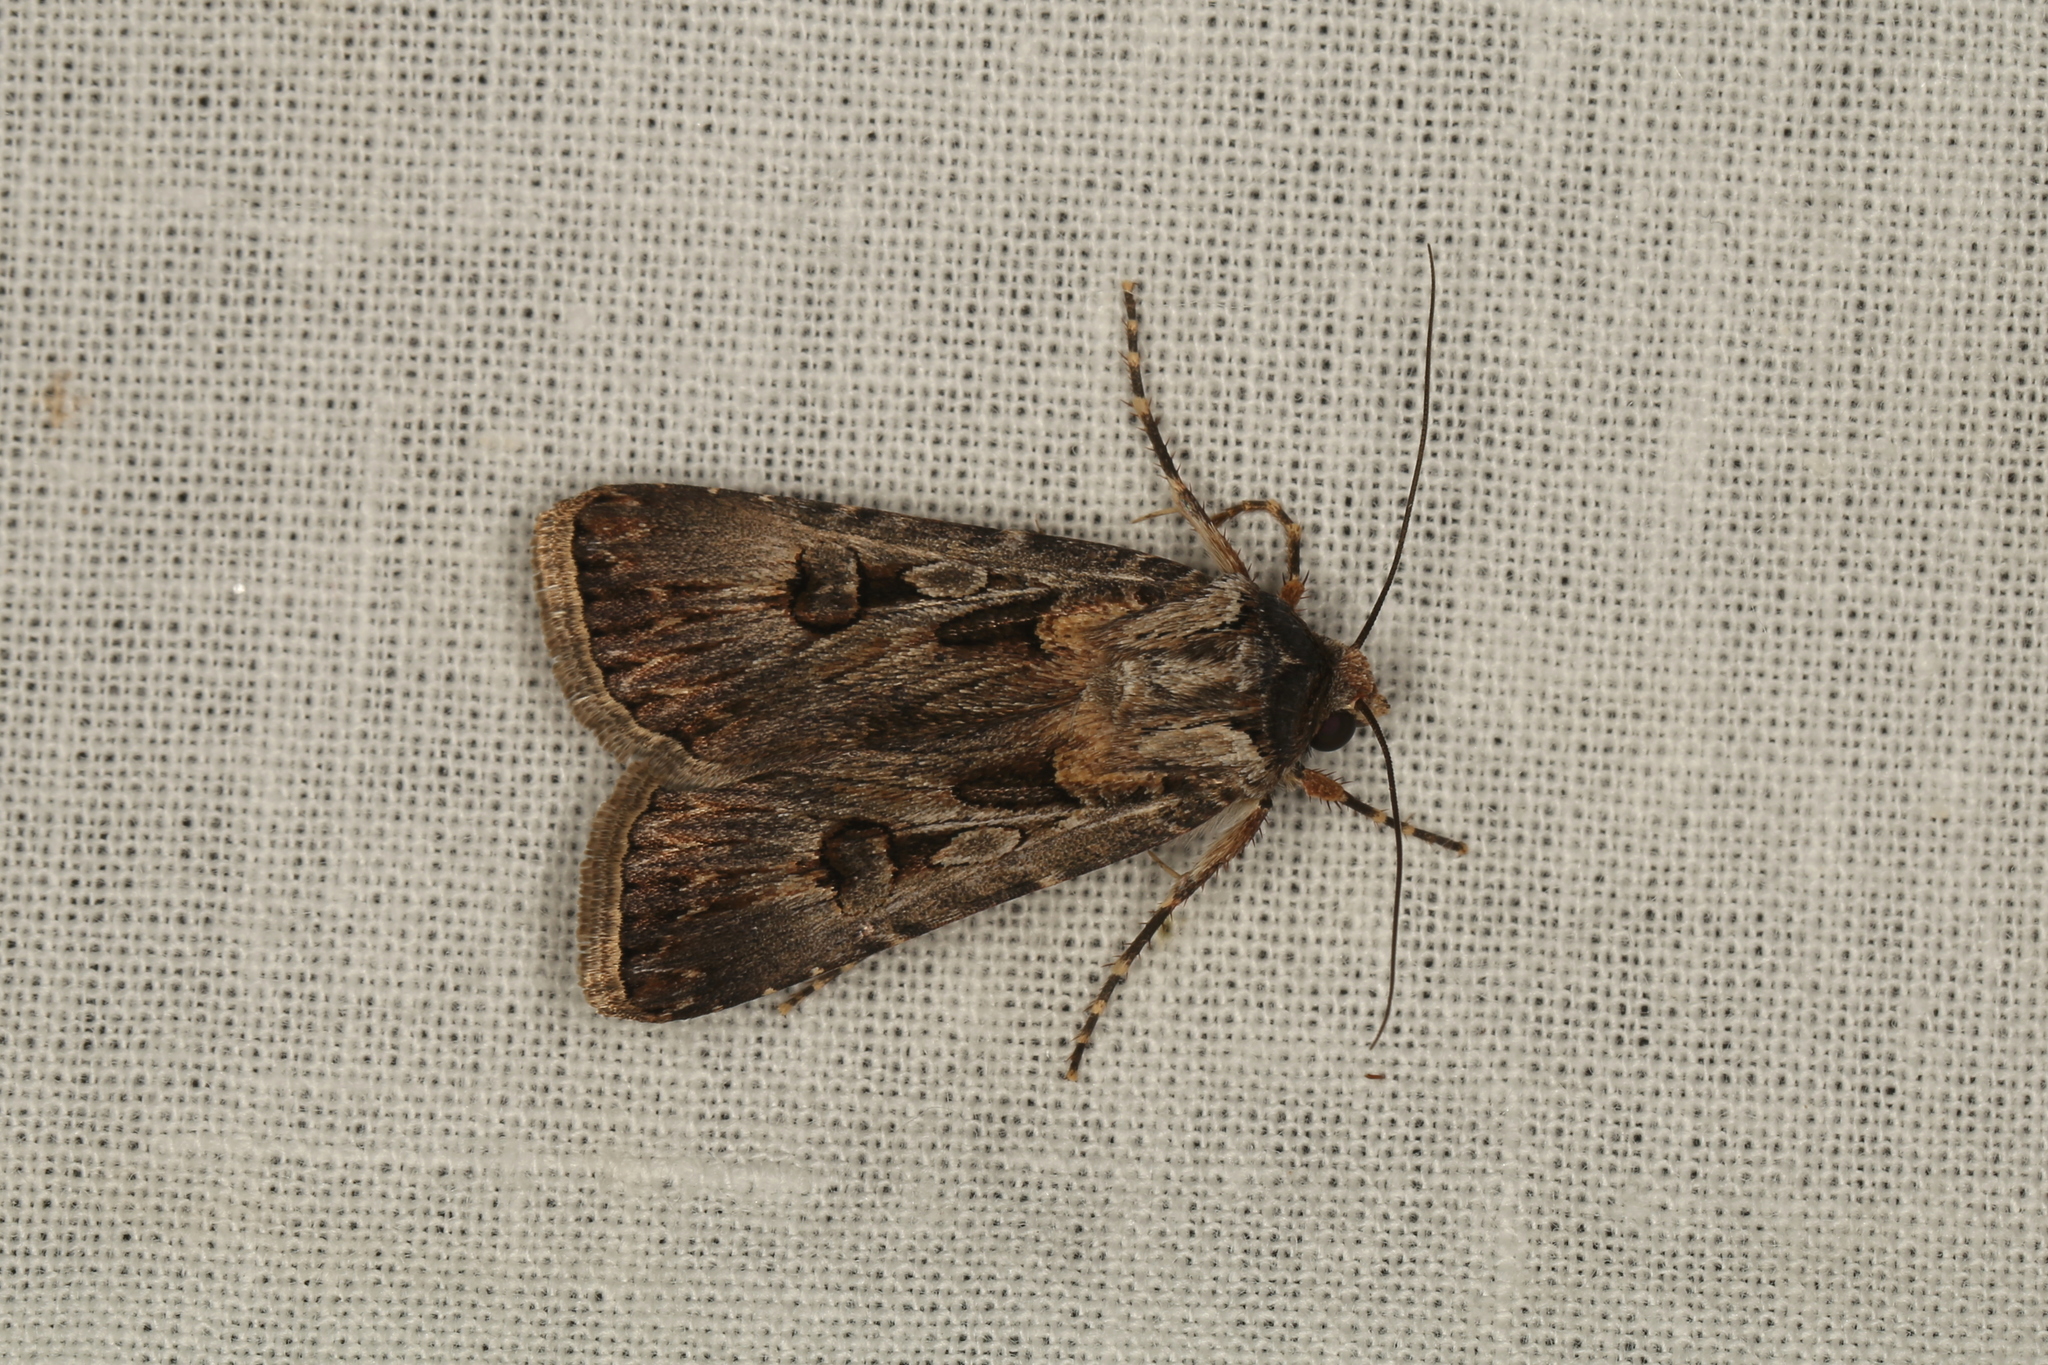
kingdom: Animalia
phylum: Arthropoda
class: Insecta
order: Lepidoptera
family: Noctuidae
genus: Agrotis
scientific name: Agrotis munda
